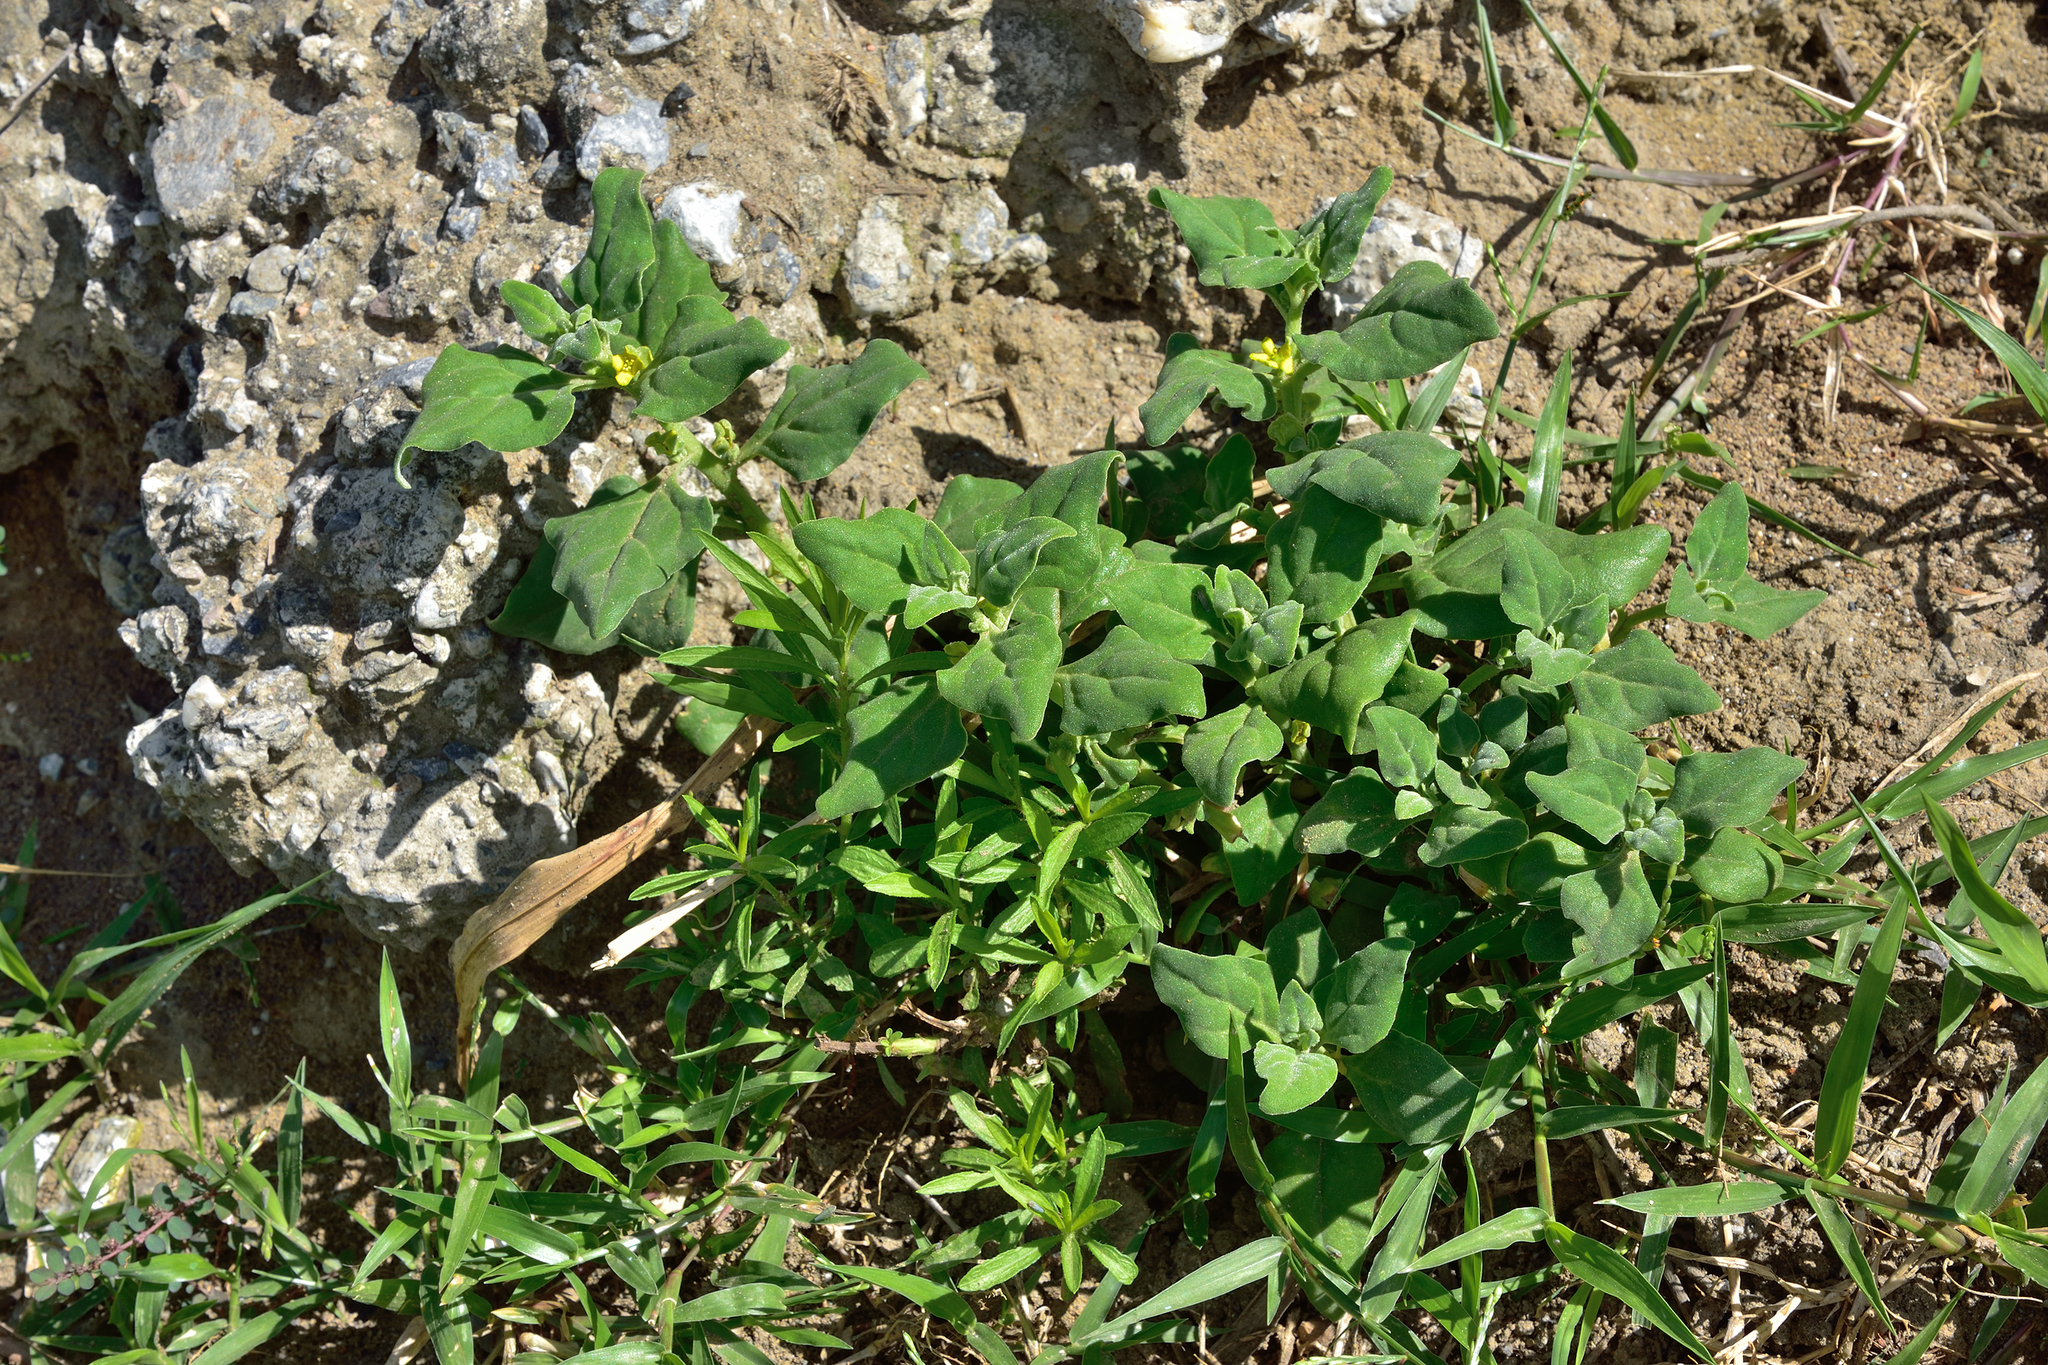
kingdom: Plantae
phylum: Tracheophyta
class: Magnoliopsida
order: Caryophyllales
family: Aizoaceae
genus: Tetragonia
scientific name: Tetragonia tetragonoides
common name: New zealand-spinach
